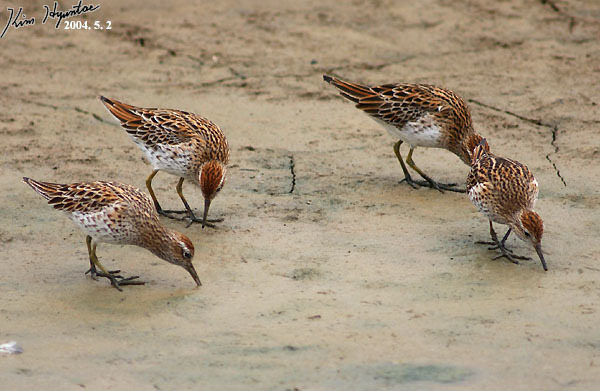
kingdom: Animalia
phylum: Chordata
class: Aves
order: Charadriiformes
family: Scolopacidae
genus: Calidris
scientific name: Calidris acuminata
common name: Sharp-tailed sandpiper
